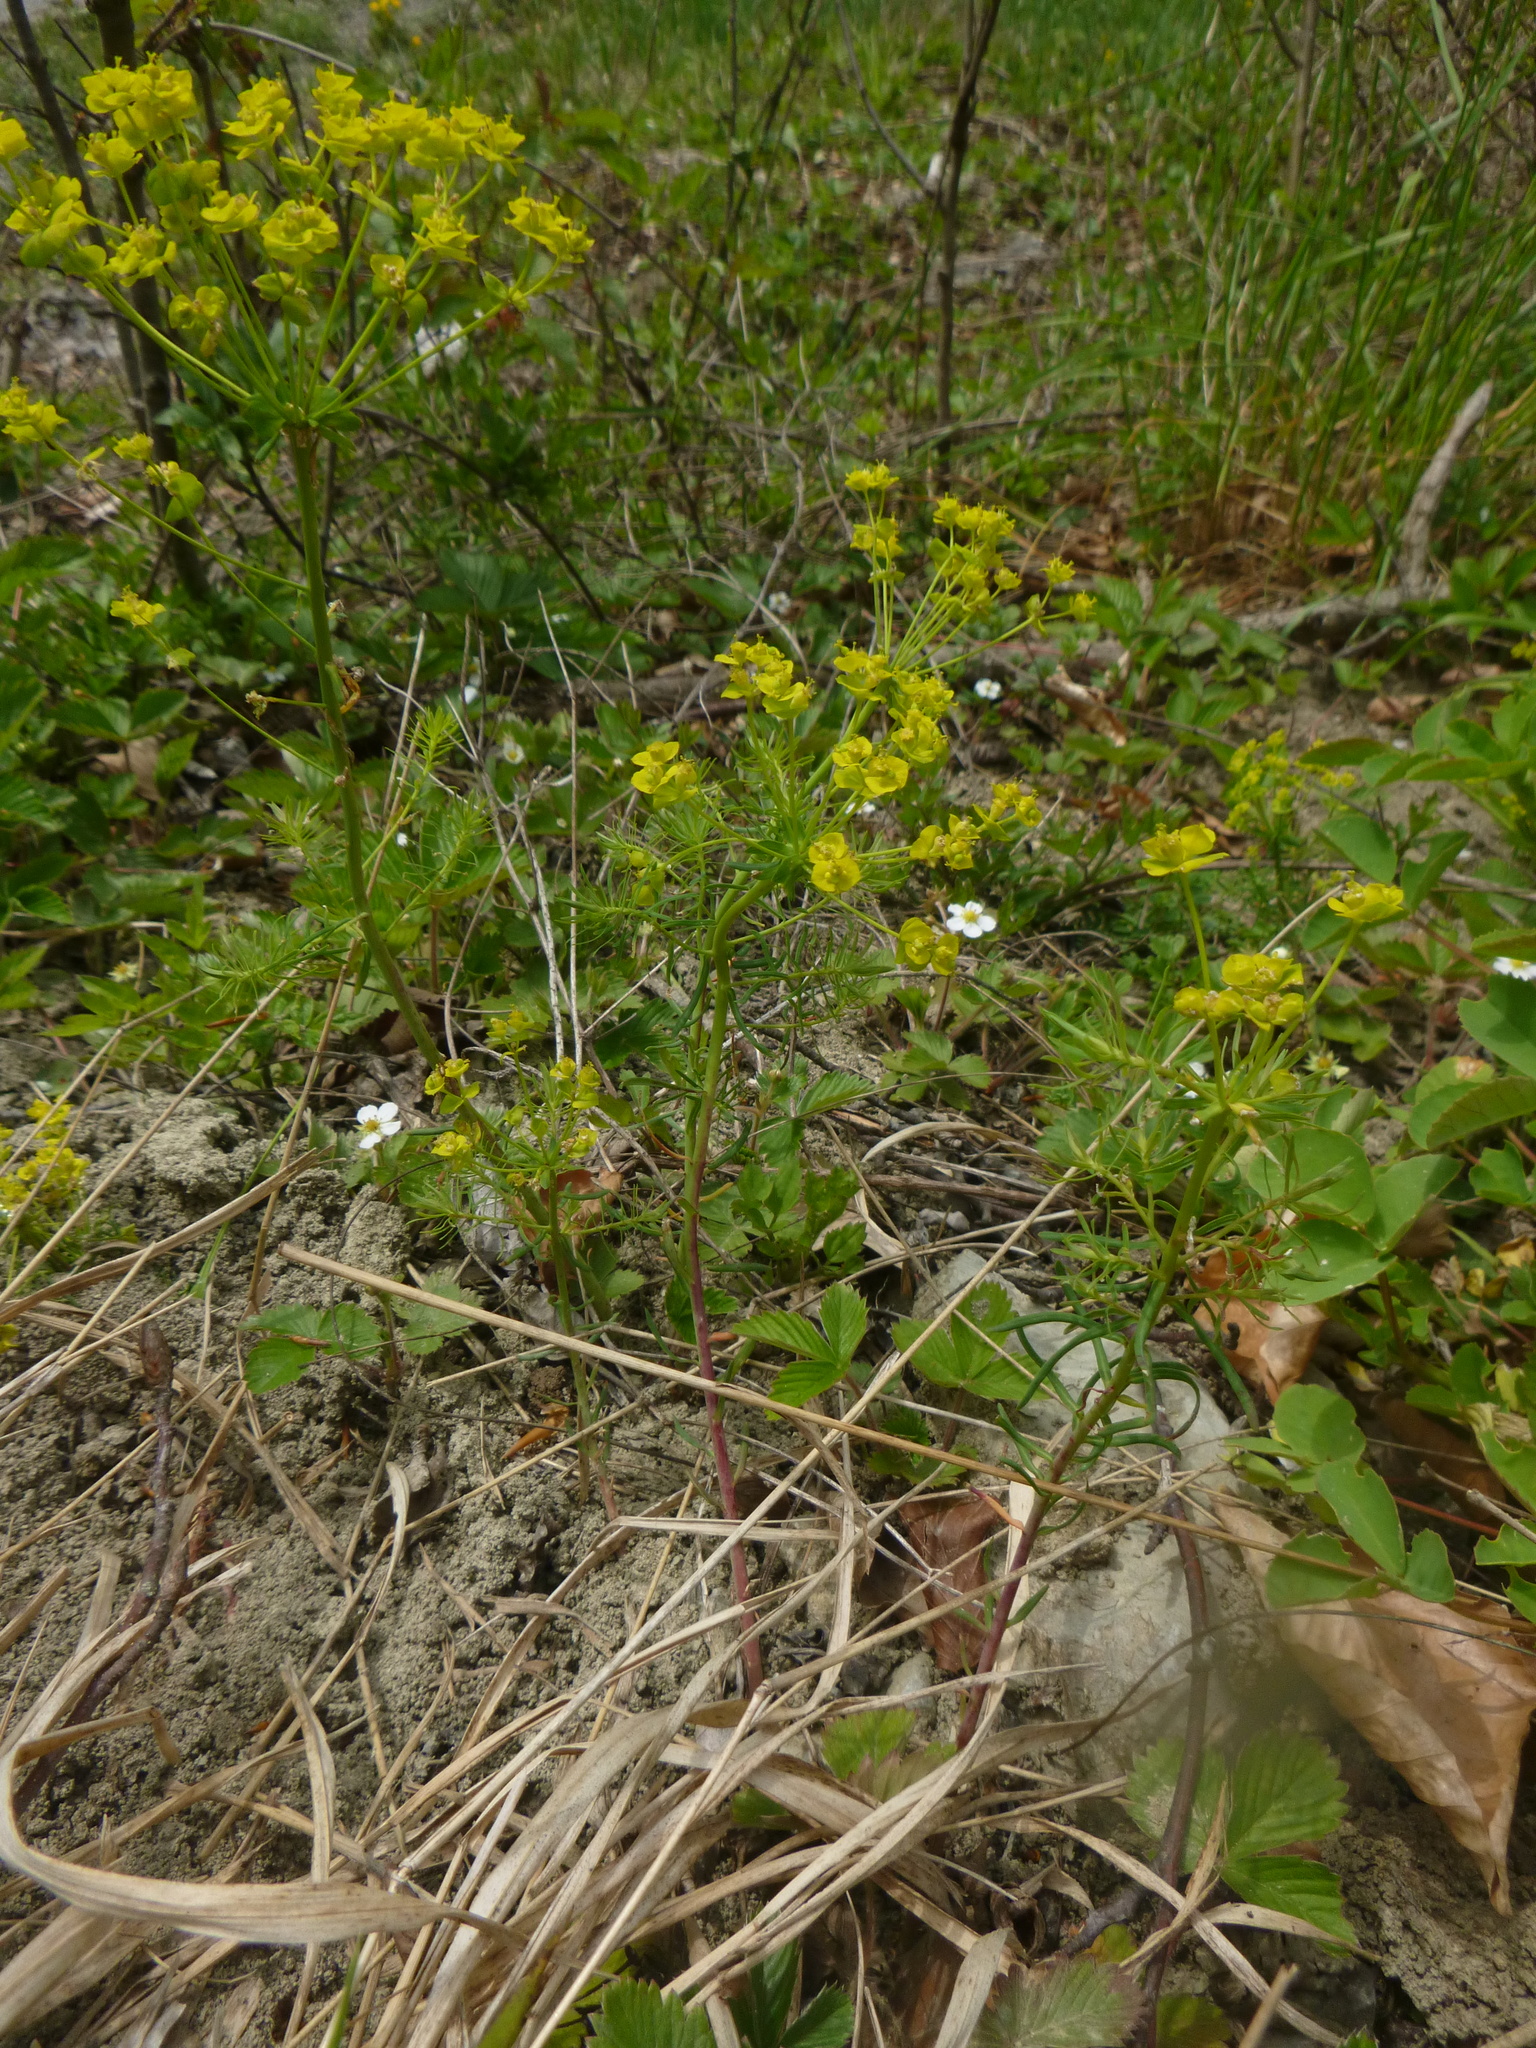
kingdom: Plantae
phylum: Tracheophyta
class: Magnoliopsida
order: Malpighiales
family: Euphorbiaceae
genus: Euphorbia
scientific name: Euphorbia cyparissias
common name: Cypress spurge
